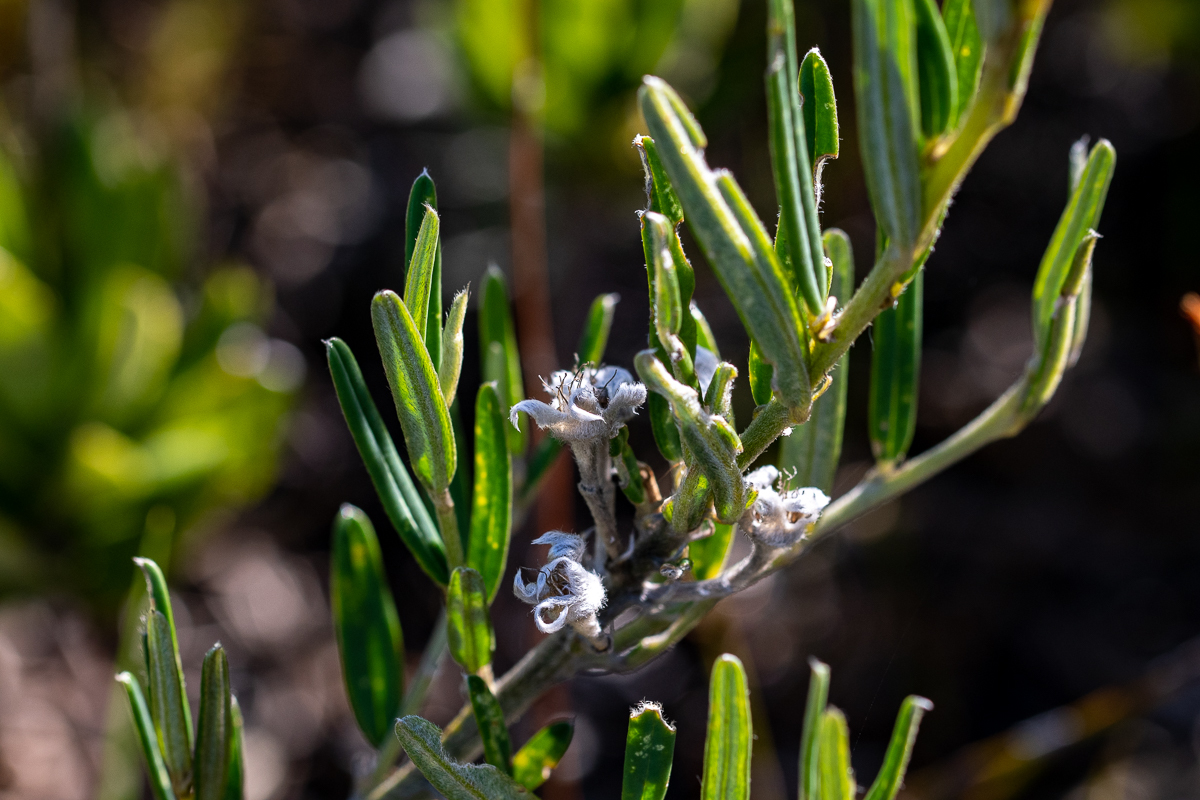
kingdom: Plantae
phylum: Tracheophyta
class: Magnoliopsida
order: Fabales
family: Fabaceae
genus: Podalyria
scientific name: Podalyria oleifolia
